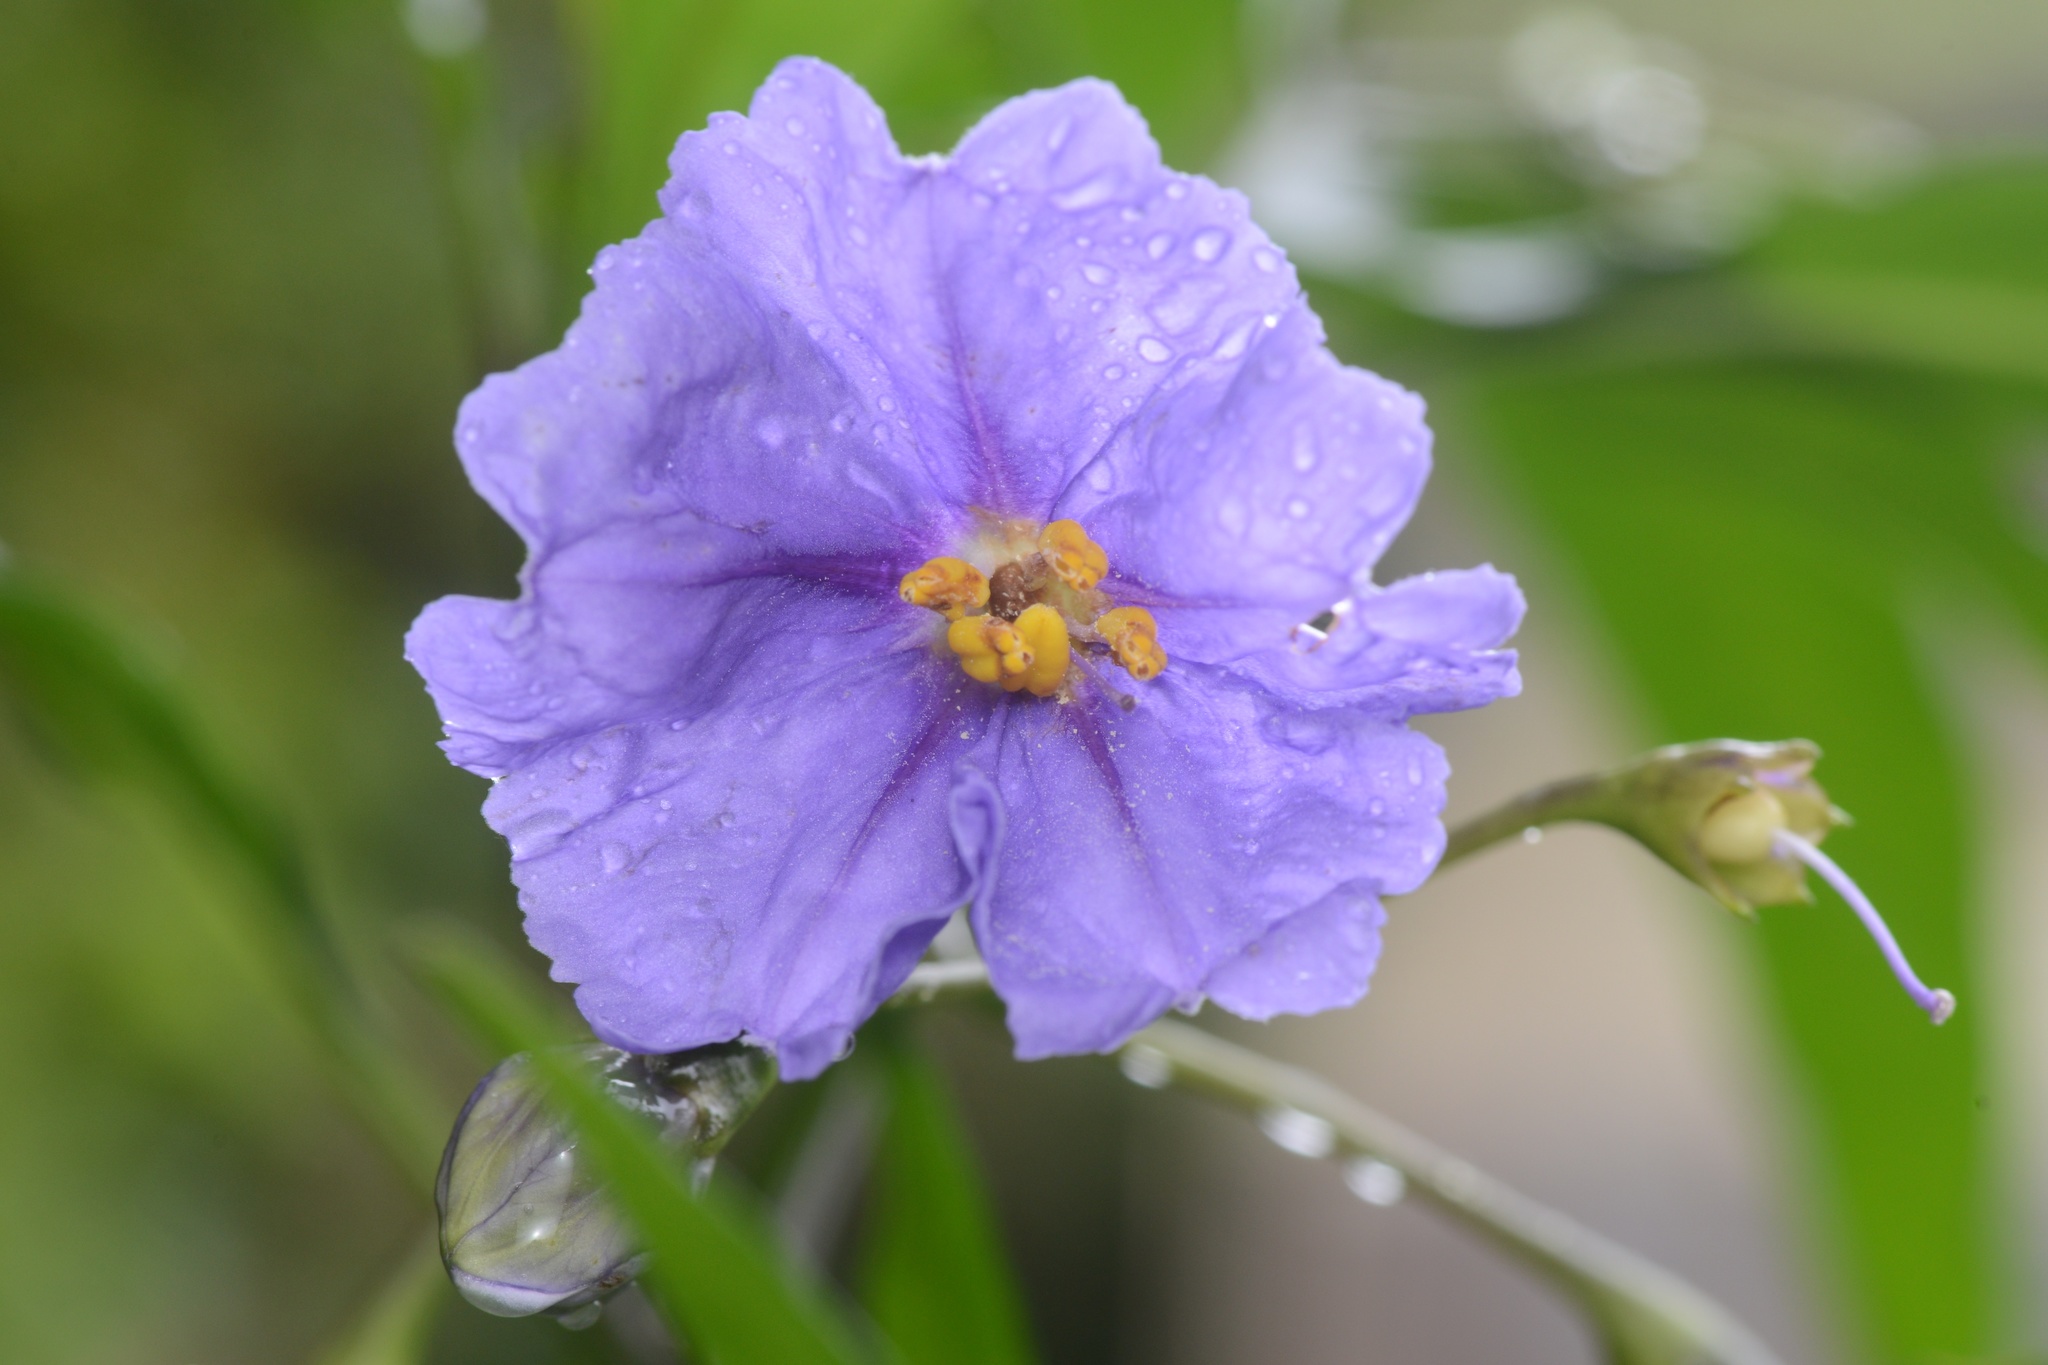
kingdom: Plantae
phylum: Tracheophyta
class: Magnoliopsida
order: Solanales
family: Solanaceae
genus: Solanum
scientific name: Solanum laciniatum
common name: Kangaroo-apple
